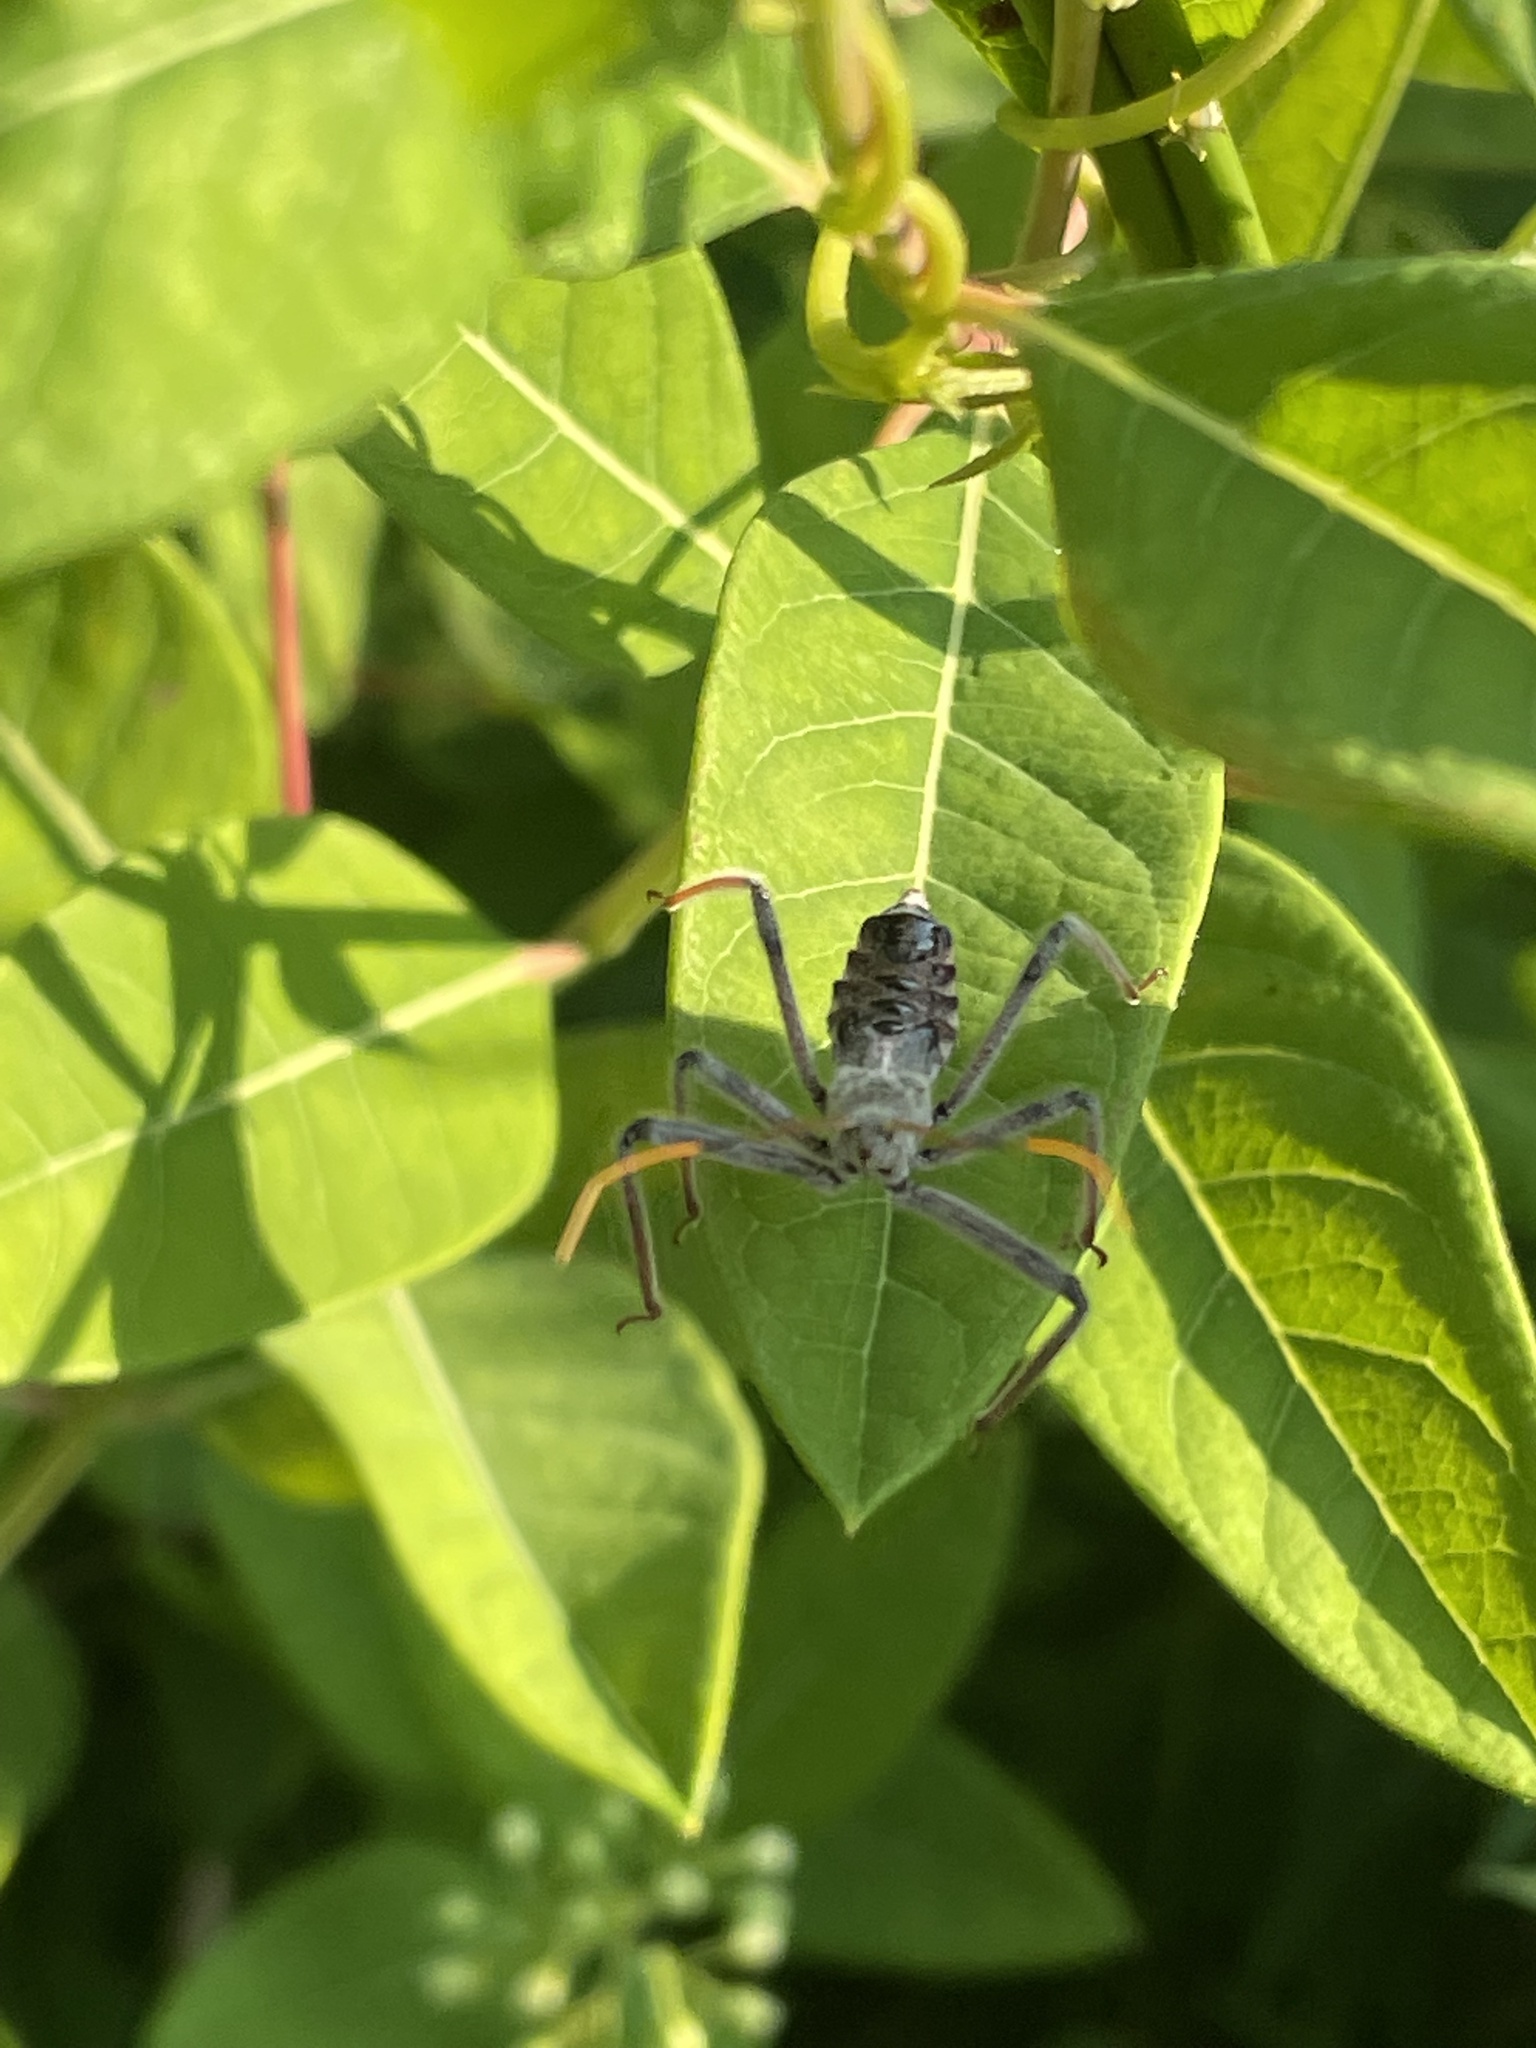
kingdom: Animalia
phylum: Arthropoda
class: Insecta
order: Hemiptera
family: Reduviidae
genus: Arilus
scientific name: Arilus cristatus
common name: North american wheel bug
